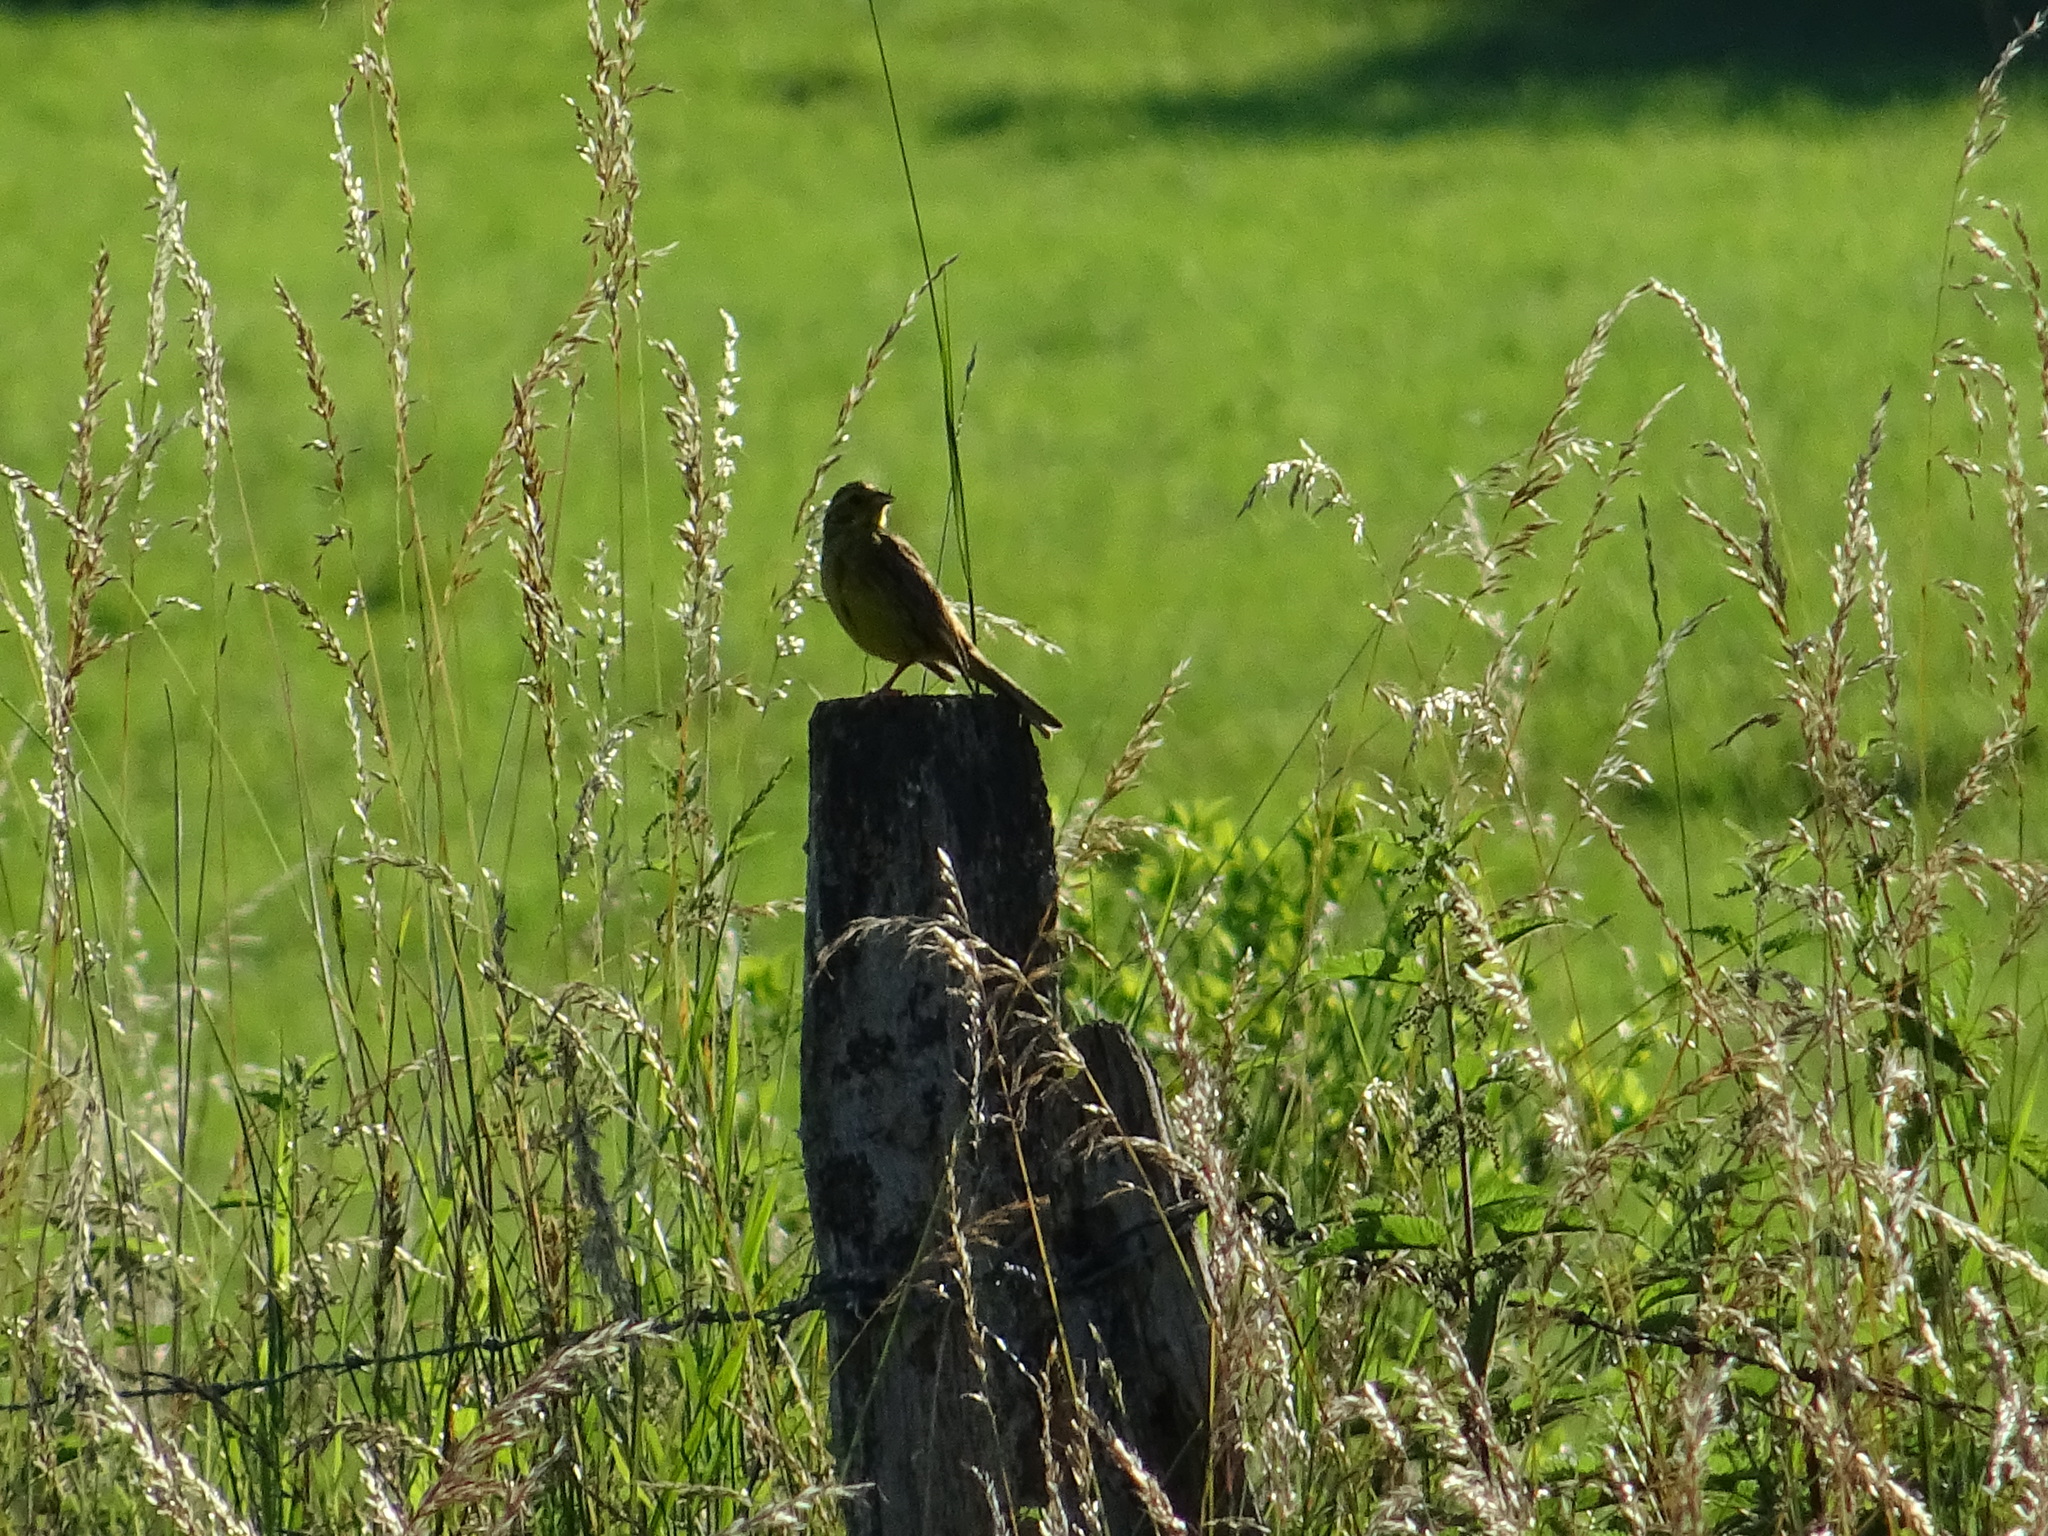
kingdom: Animalia
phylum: Chordata
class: Aves
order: Passeriformes
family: Emberizidae
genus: Emberiza
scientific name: Emberiza citrinella
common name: Yellowhammer
